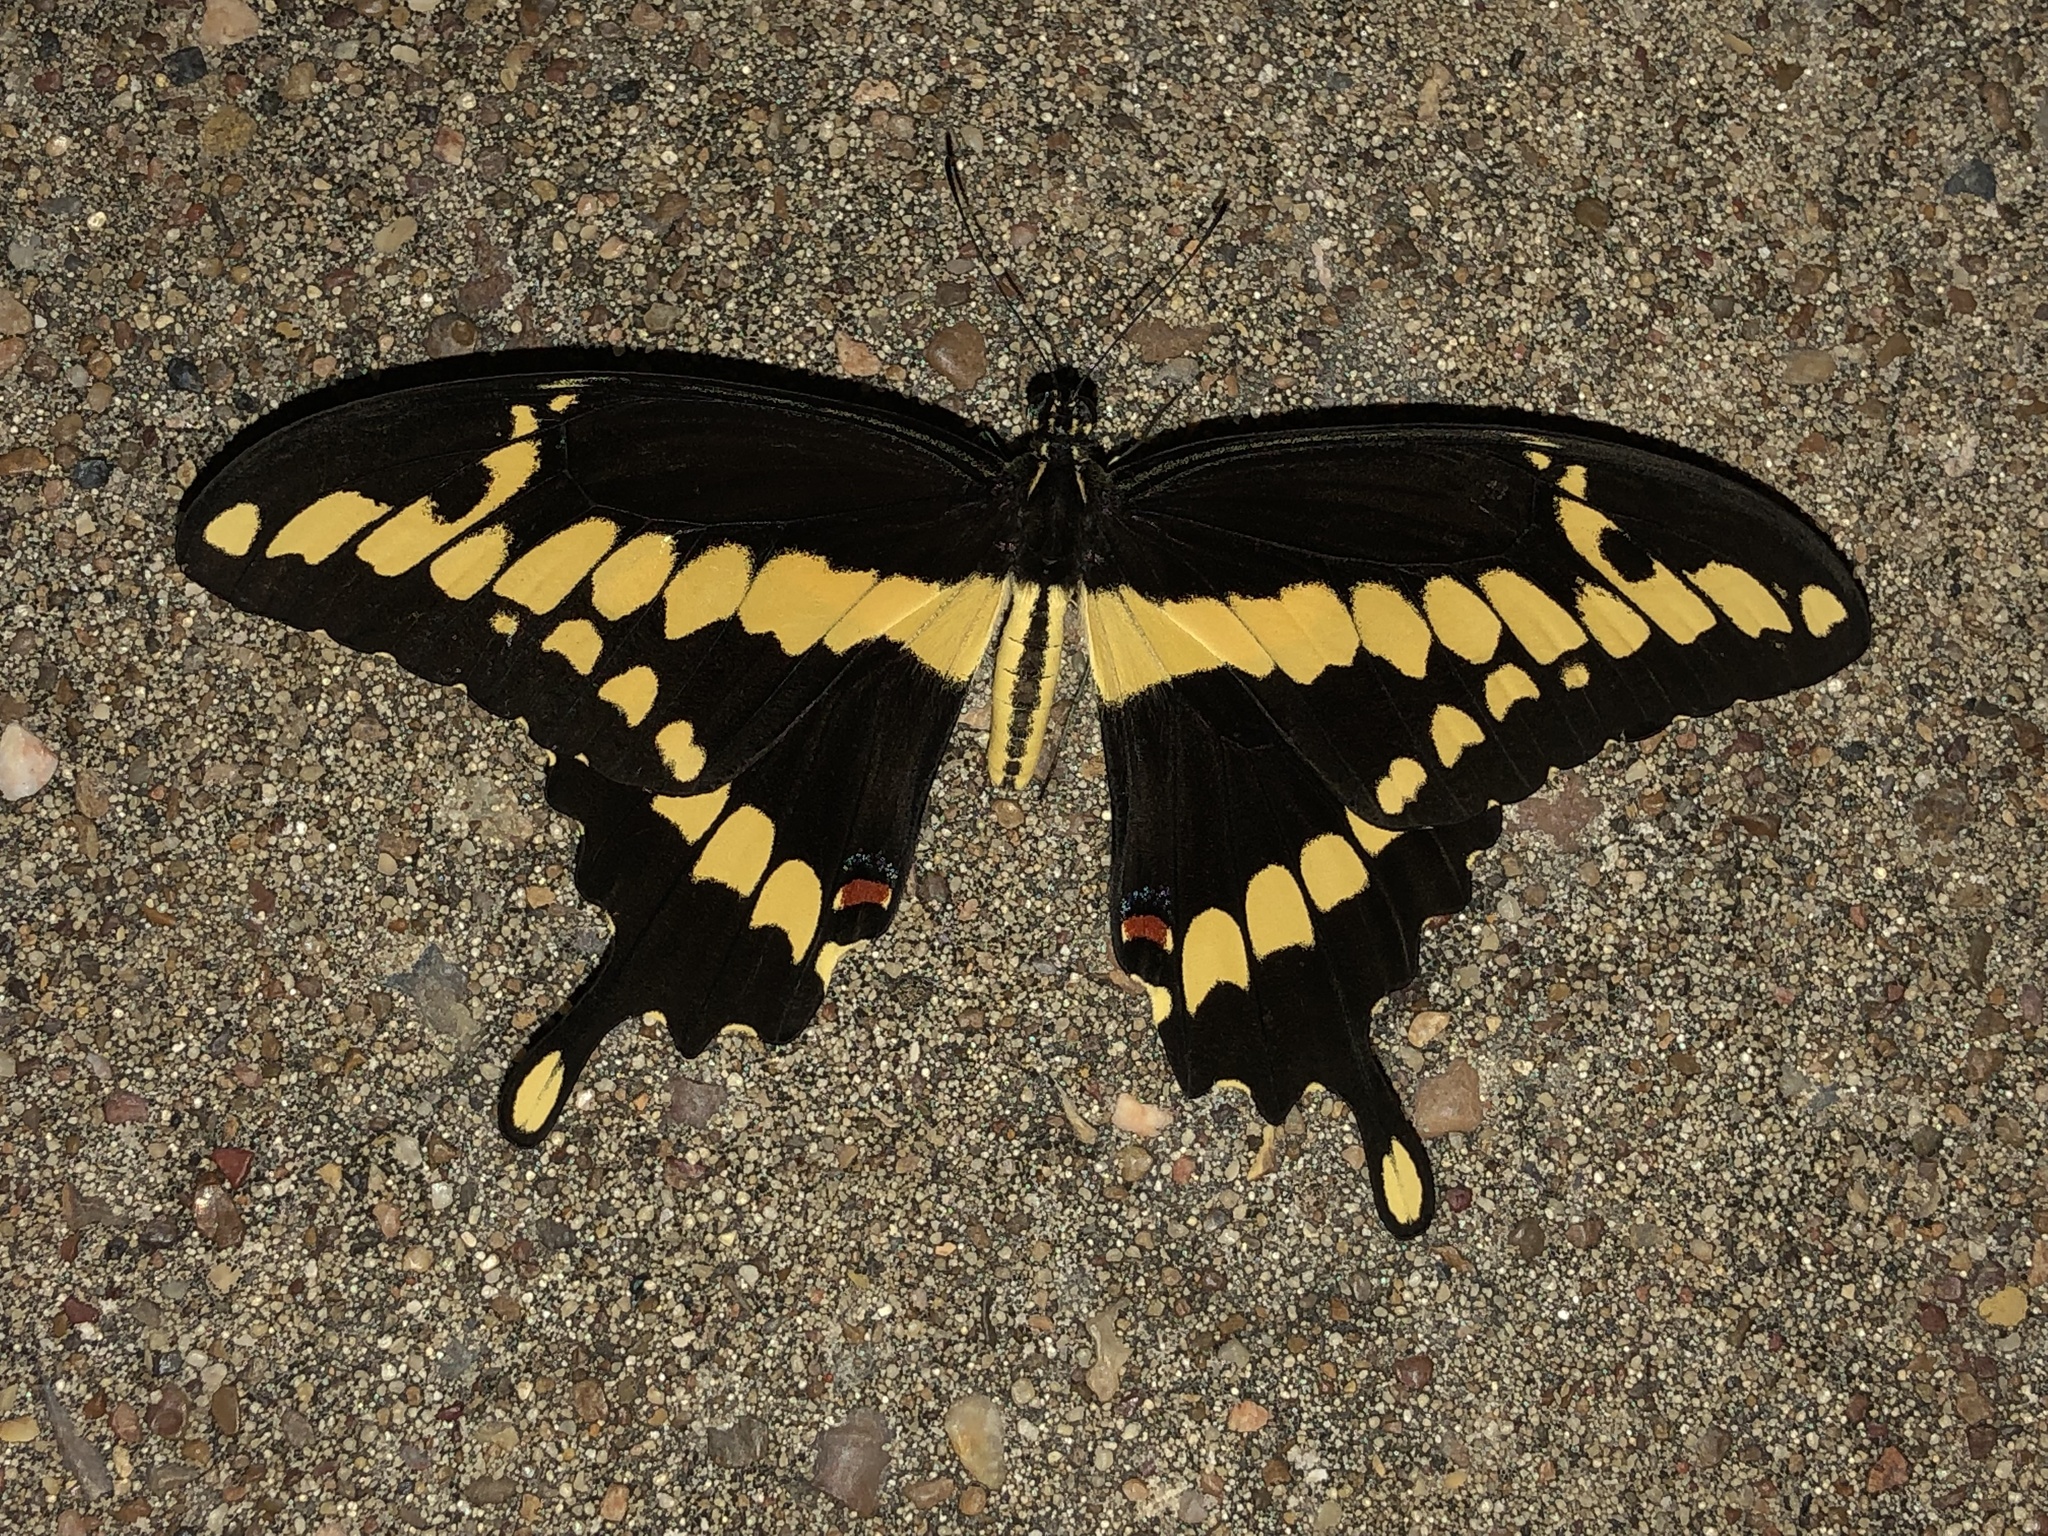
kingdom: Animalia
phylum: Arthropoda
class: Insecta
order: Lepidoptera
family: Papilionidae
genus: Papilio
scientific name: Papilio cresphontes
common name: Giant swallowtail
